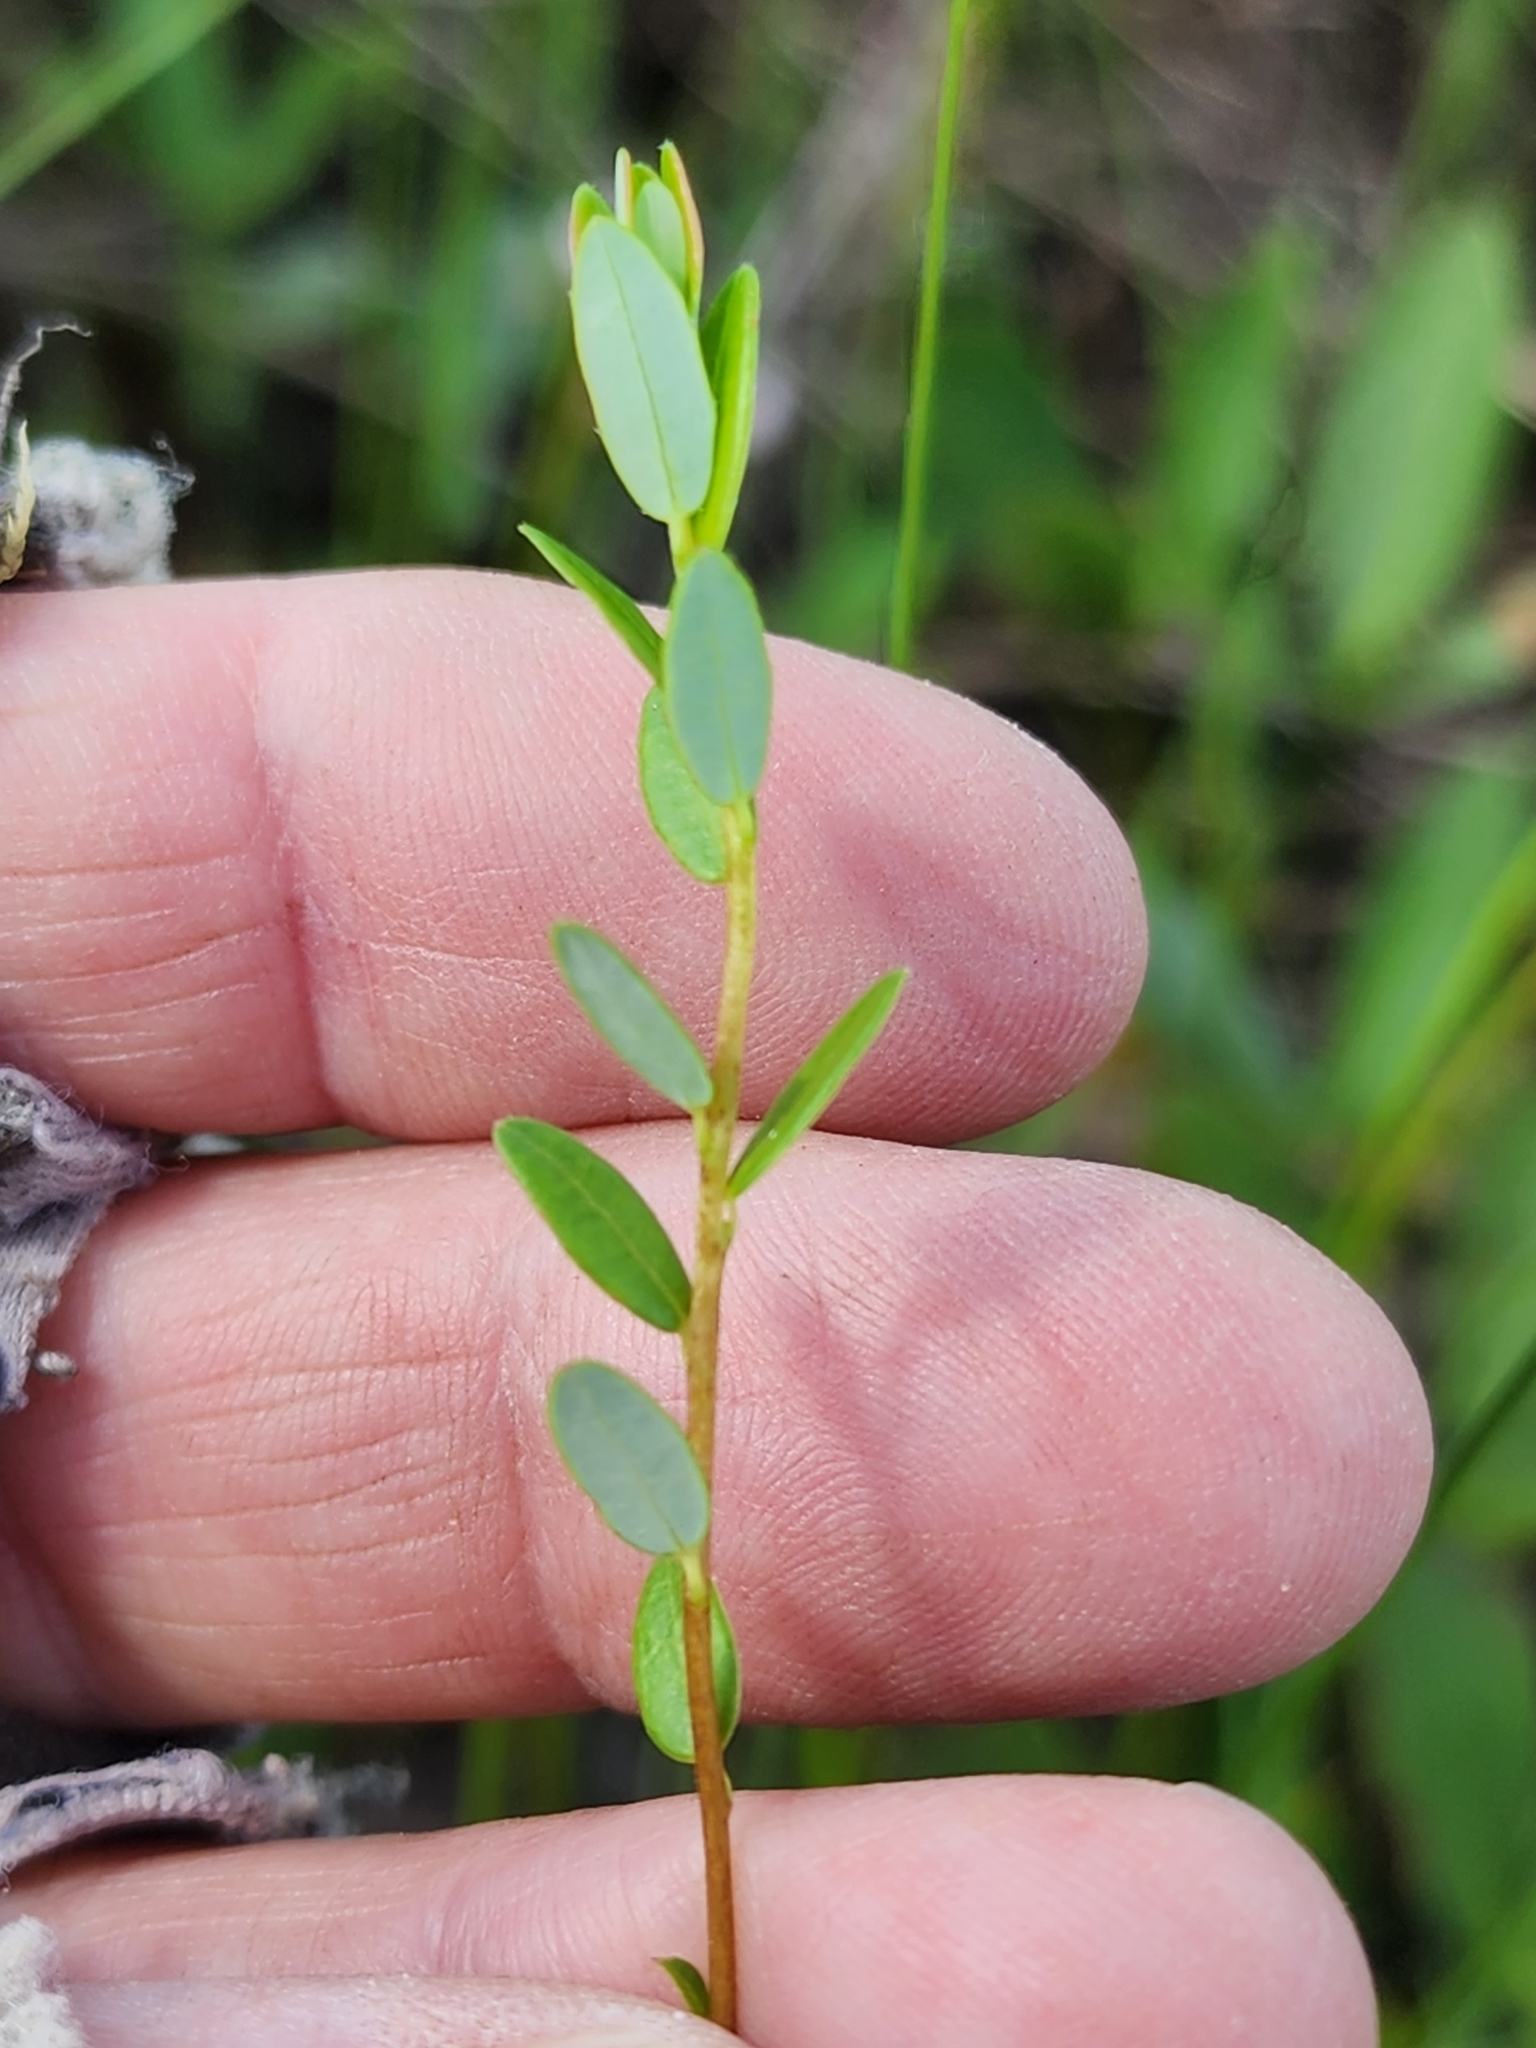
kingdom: Plantae
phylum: Tracheophyta
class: Magnoliopsida
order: Ericales
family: Ericaceae
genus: Vaccinium
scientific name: Vaccinium macrocarpon
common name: American cranberry
